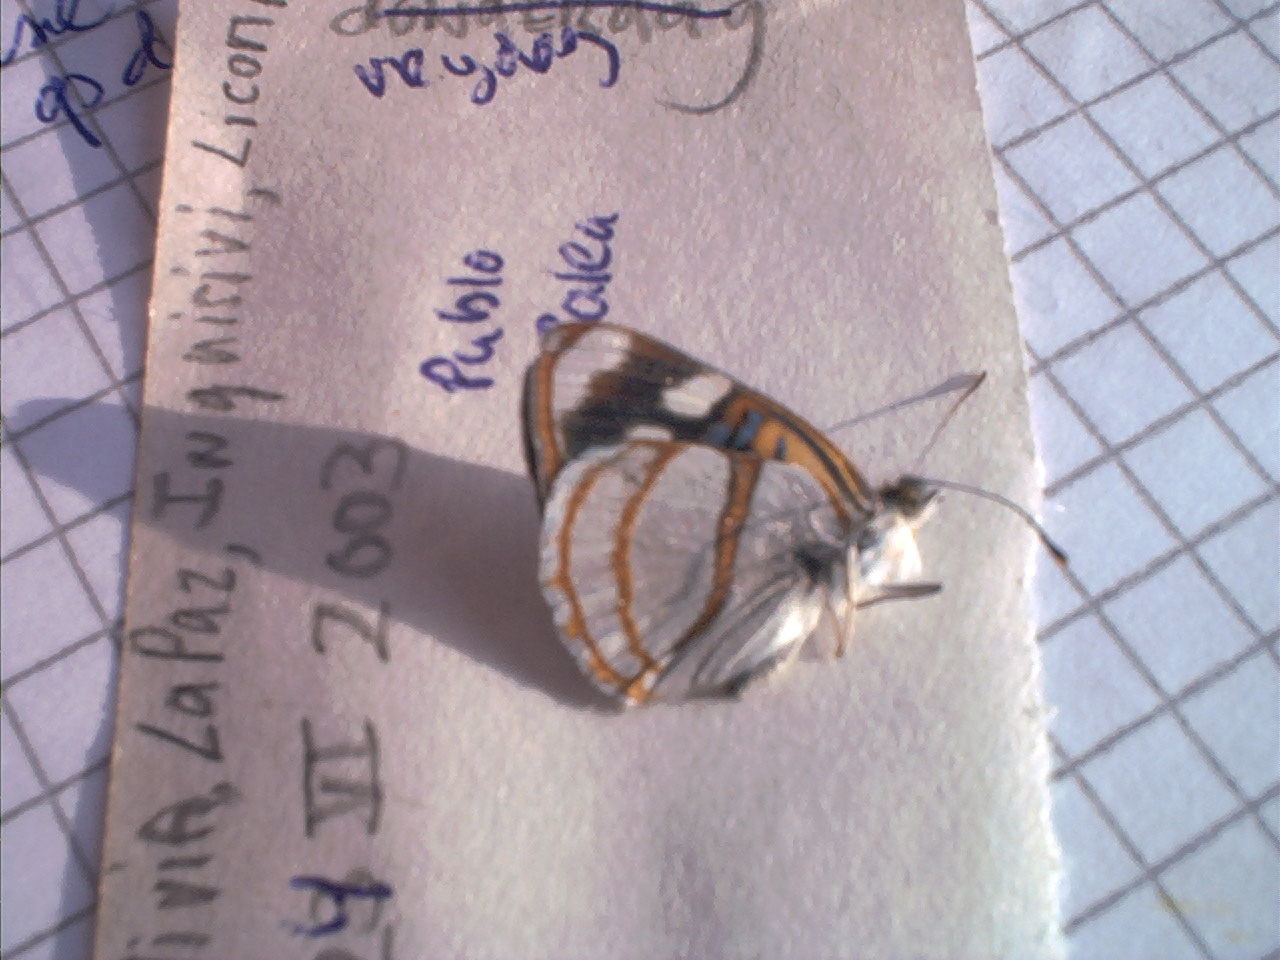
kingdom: Animalia
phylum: Arthropoda
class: Insecta
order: Lepidoptera
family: Nymphalidae
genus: Dynamine
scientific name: Dynamine tithia
